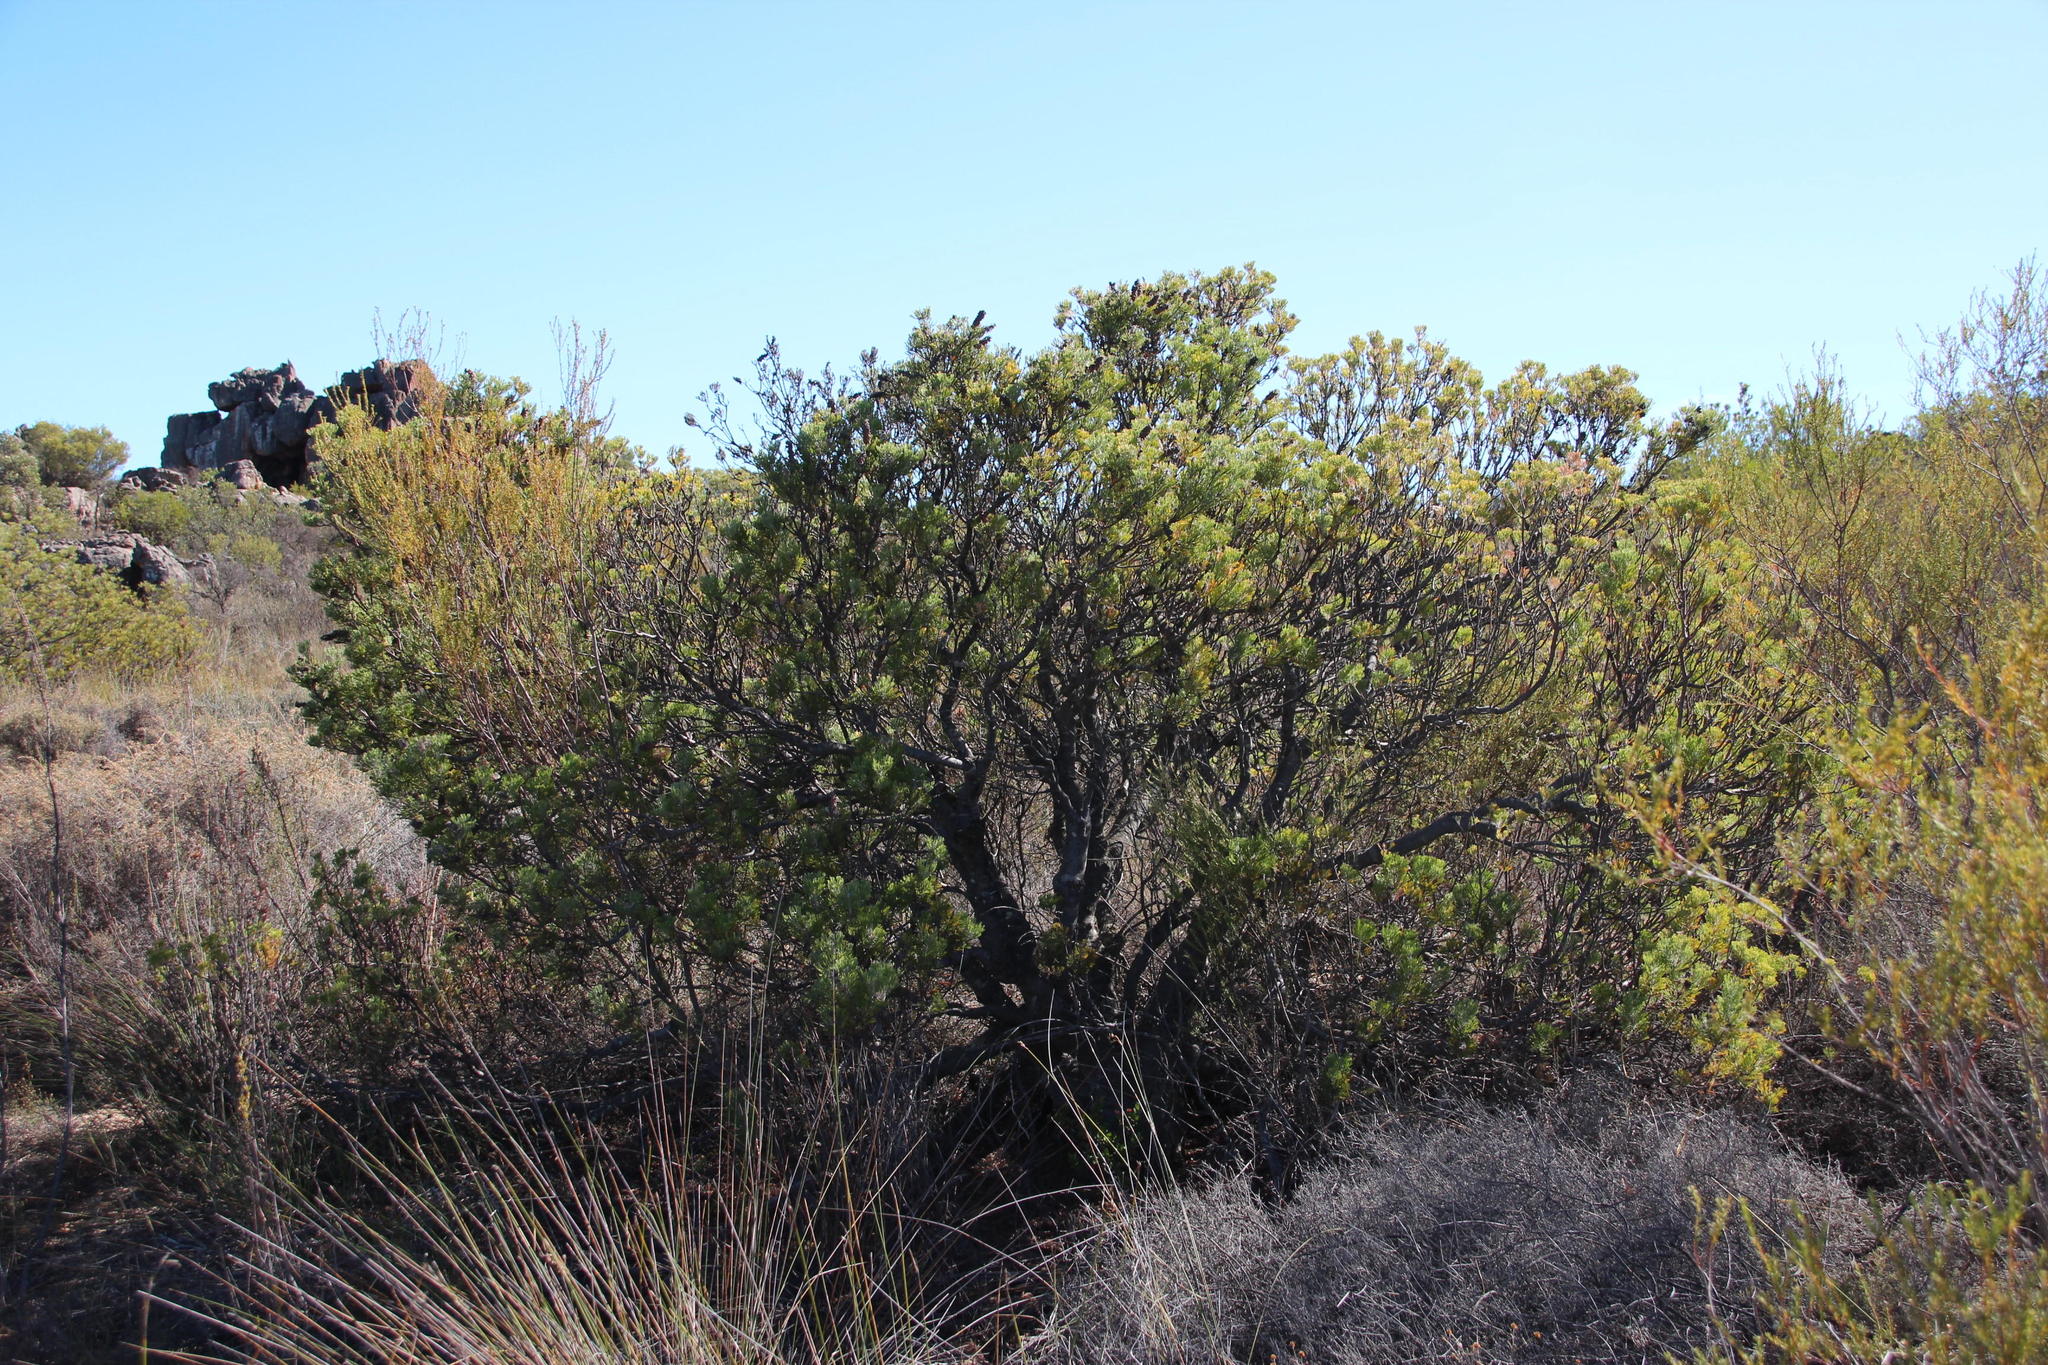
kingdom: Plantae
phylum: Tracheophyta
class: Magnoliopsida
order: Proteales
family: Proteaceae
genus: Paranomus
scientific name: Paranomus bracteolaris
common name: Bokkeveld tree sceptre
